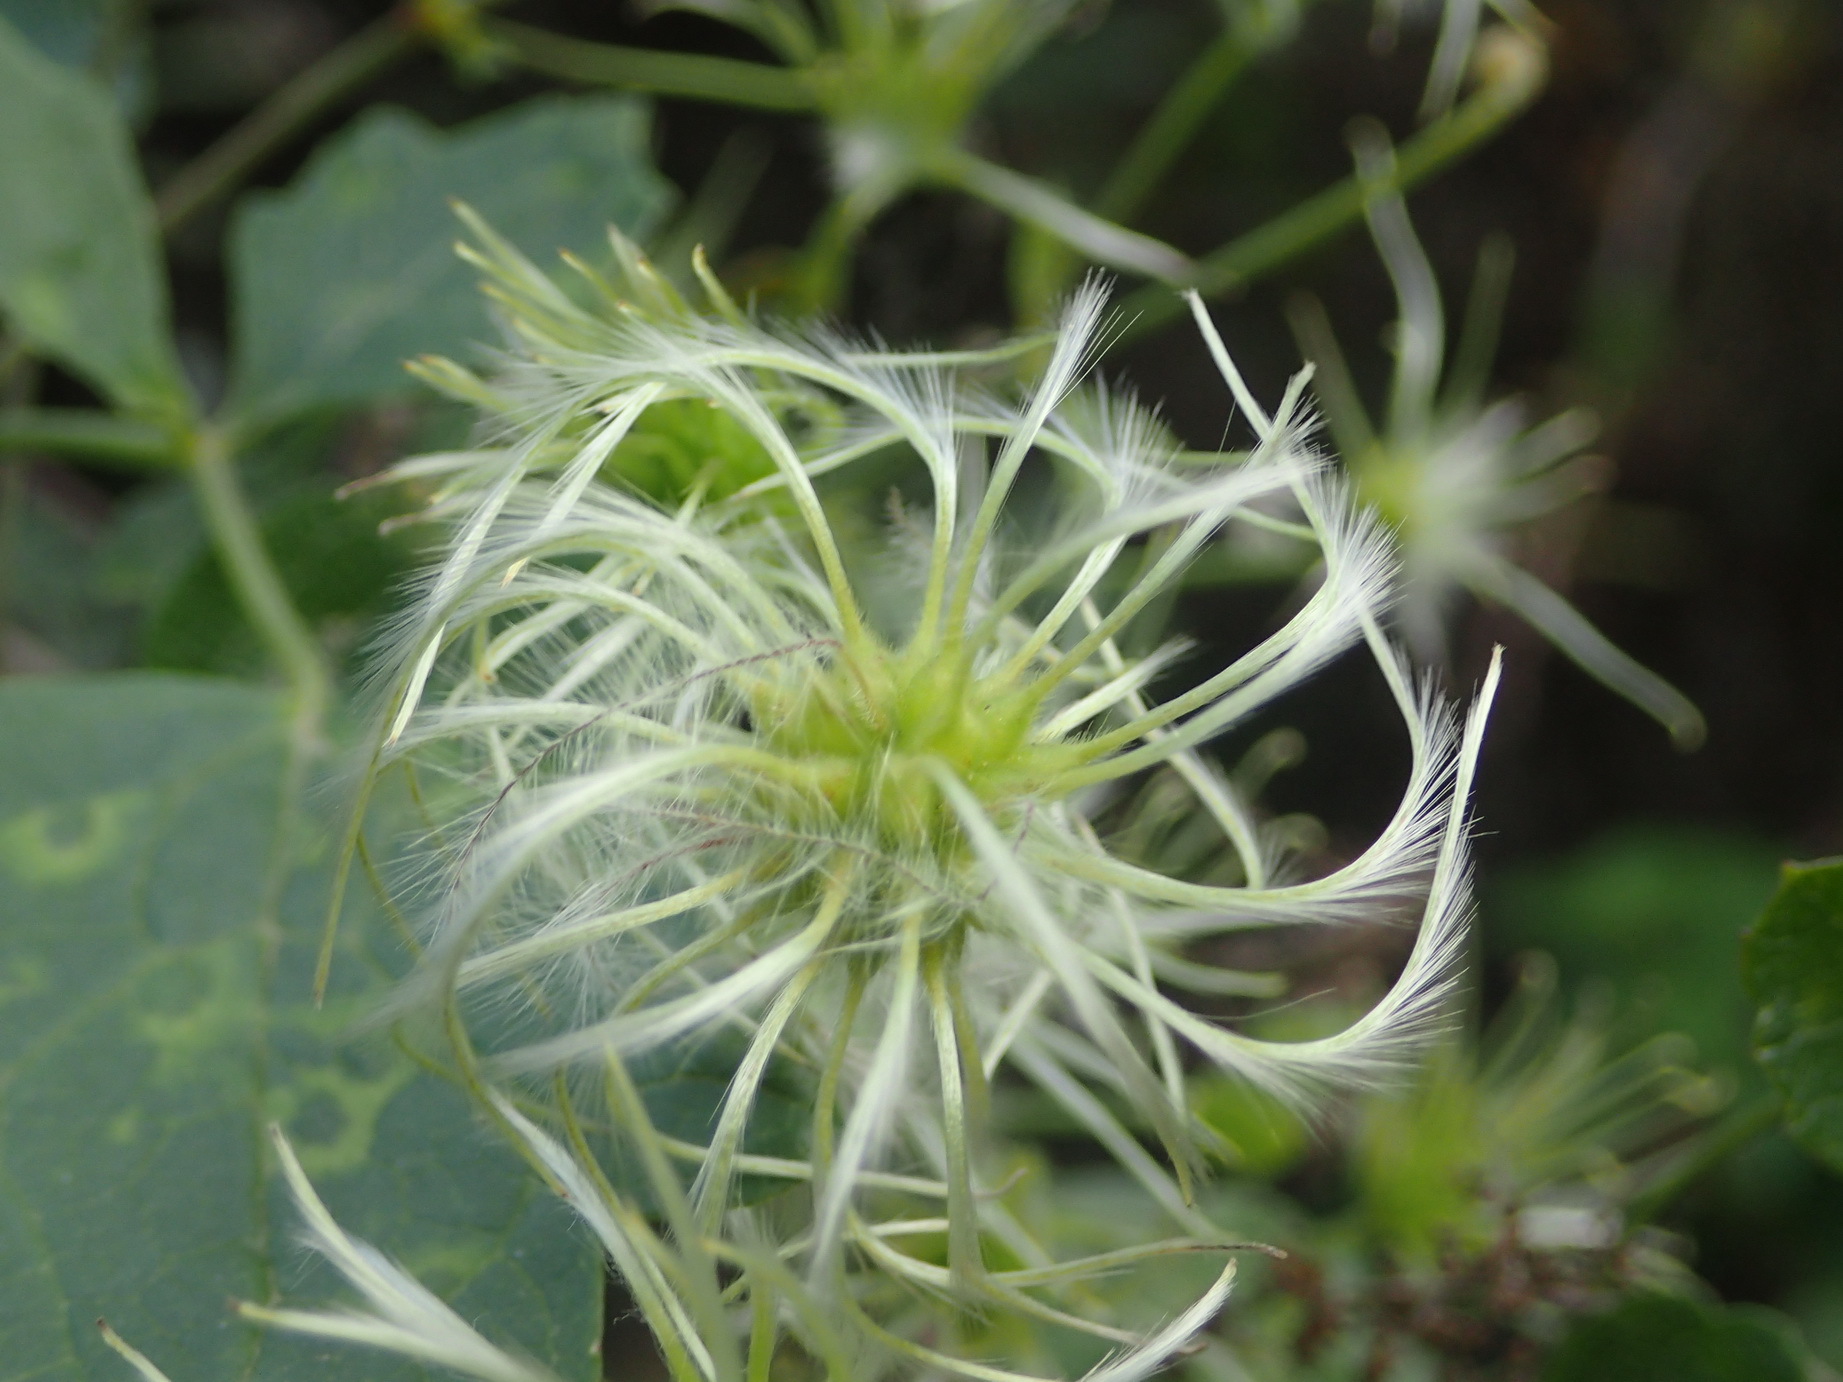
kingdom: Plantae
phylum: Tracheophyta
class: Magnoliopsida
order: Ranunculales
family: Ranunculaceae
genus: Clematis
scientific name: Clematis brachiata
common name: Traveler's-joy
